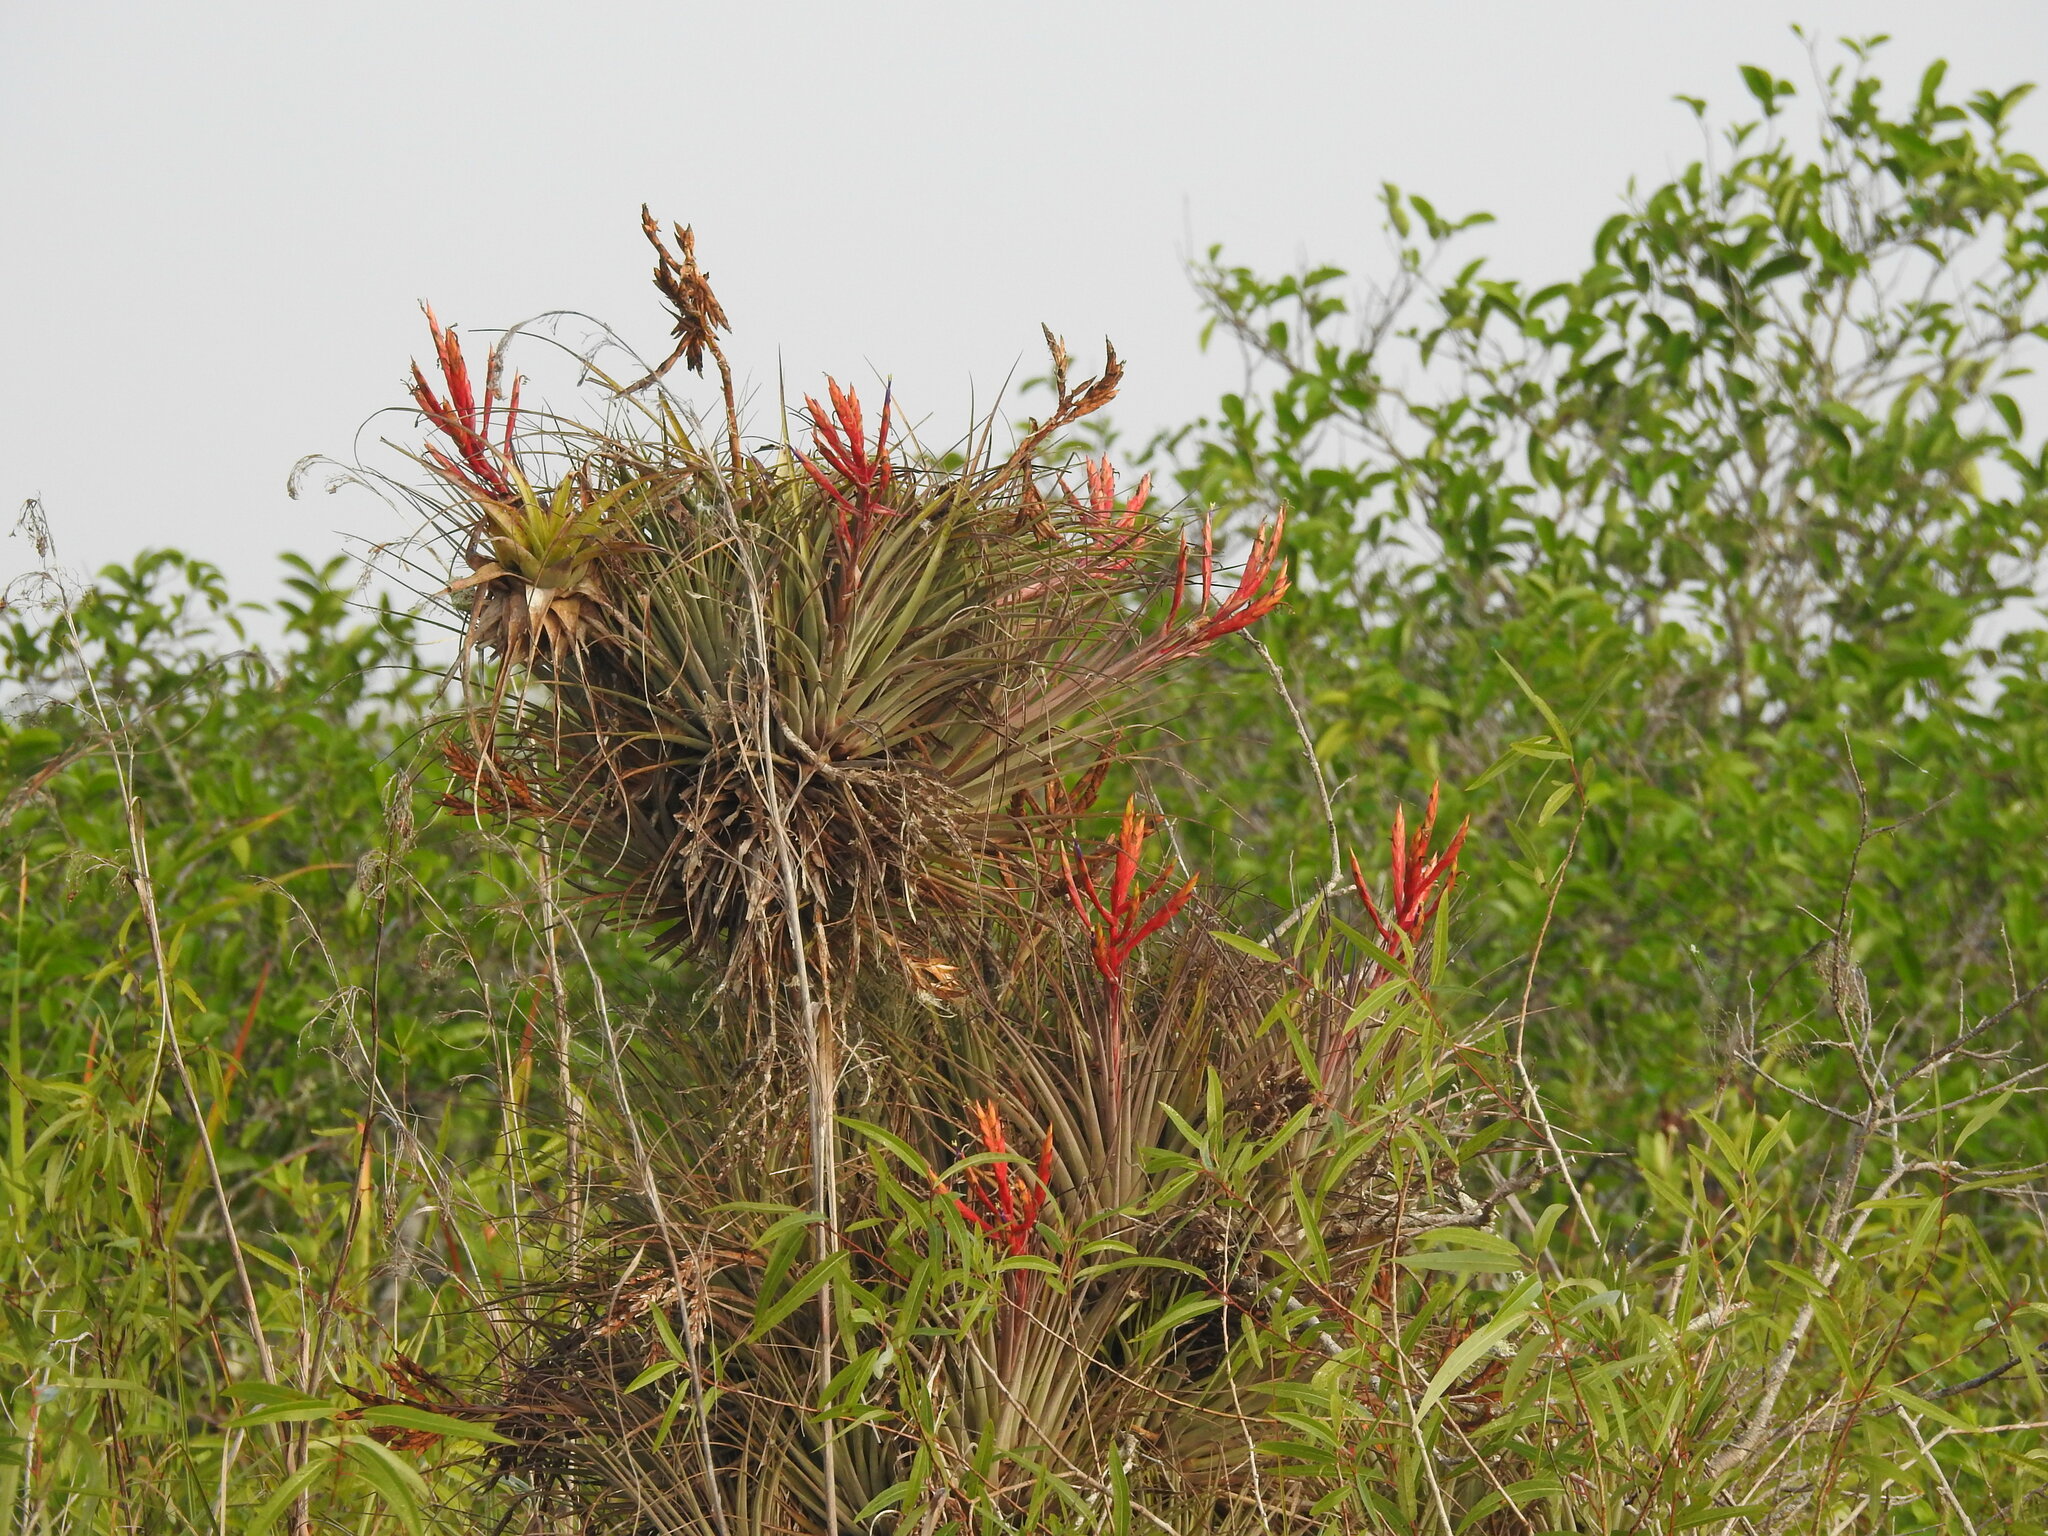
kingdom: Plantae
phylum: Tracheophyta
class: Liliopsida
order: Poales
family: Bromeliaceae
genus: Tillandsia
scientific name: Tillandsia fasciculata
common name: Giant airplant
